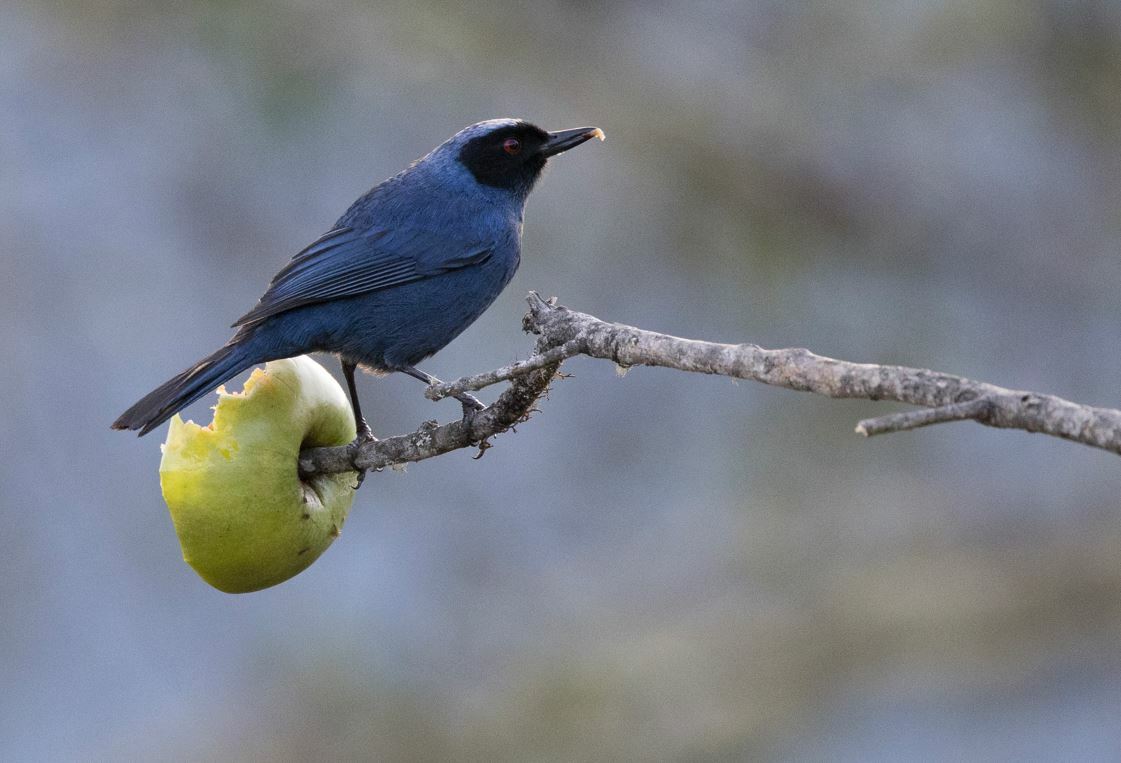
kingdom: Animalia
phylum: Chordata
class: Aves
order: Passeriformes
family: Thraupidae
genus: Diglossa
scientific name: Diglossa cyanea
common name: Masked flowerpiercer
